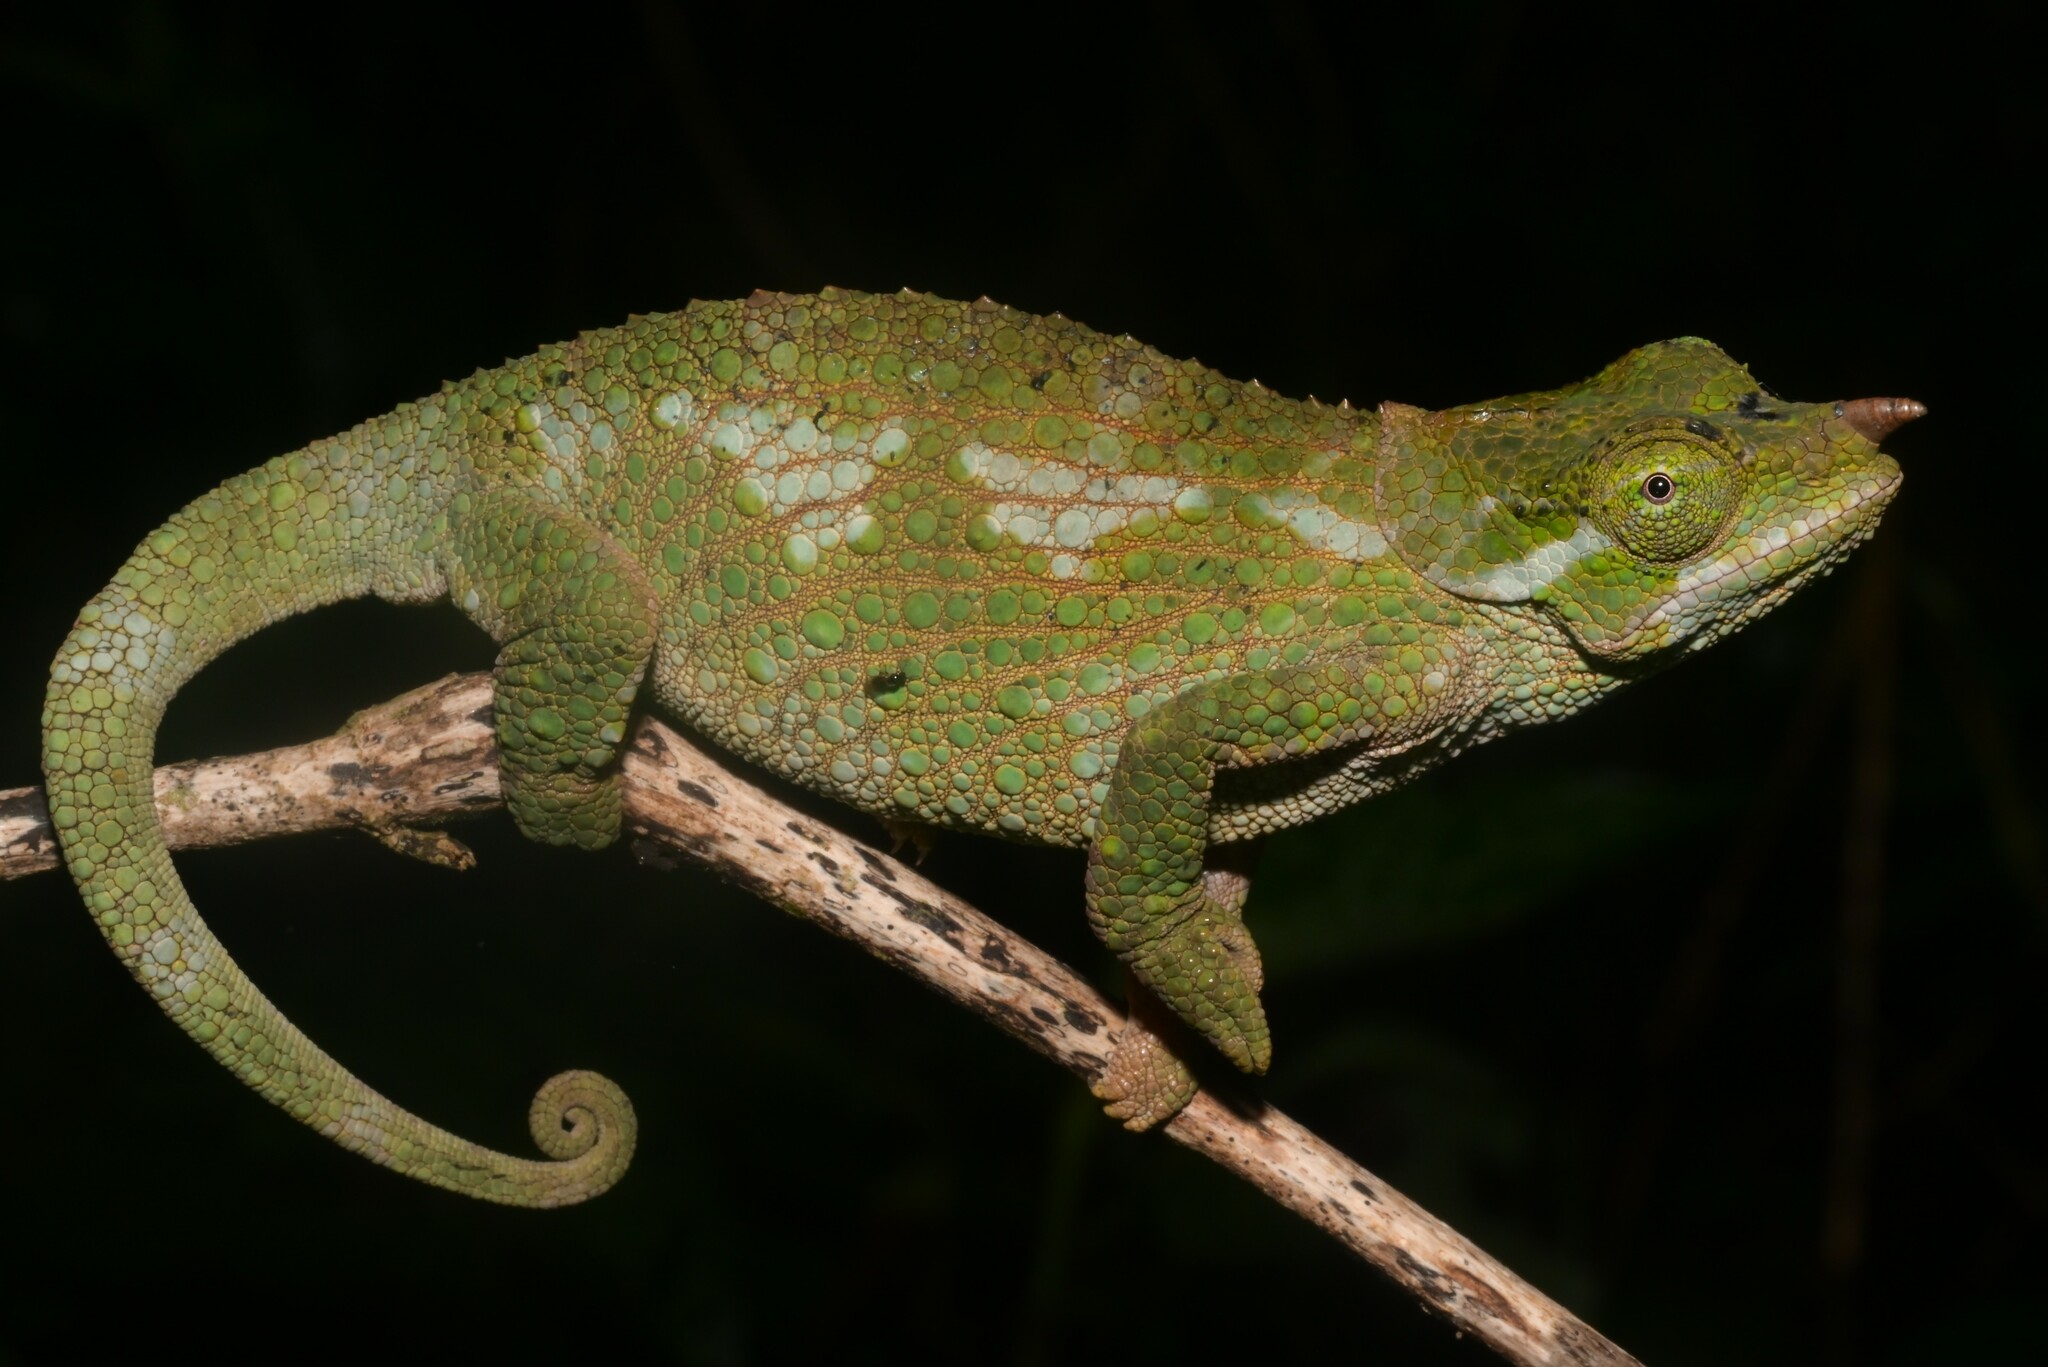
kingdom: Animalia
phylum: Chordata
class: Squamata
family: Chamaeleonidae
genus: Trioceros
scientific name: Trioceros werneri
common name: Wemer's chameleon
